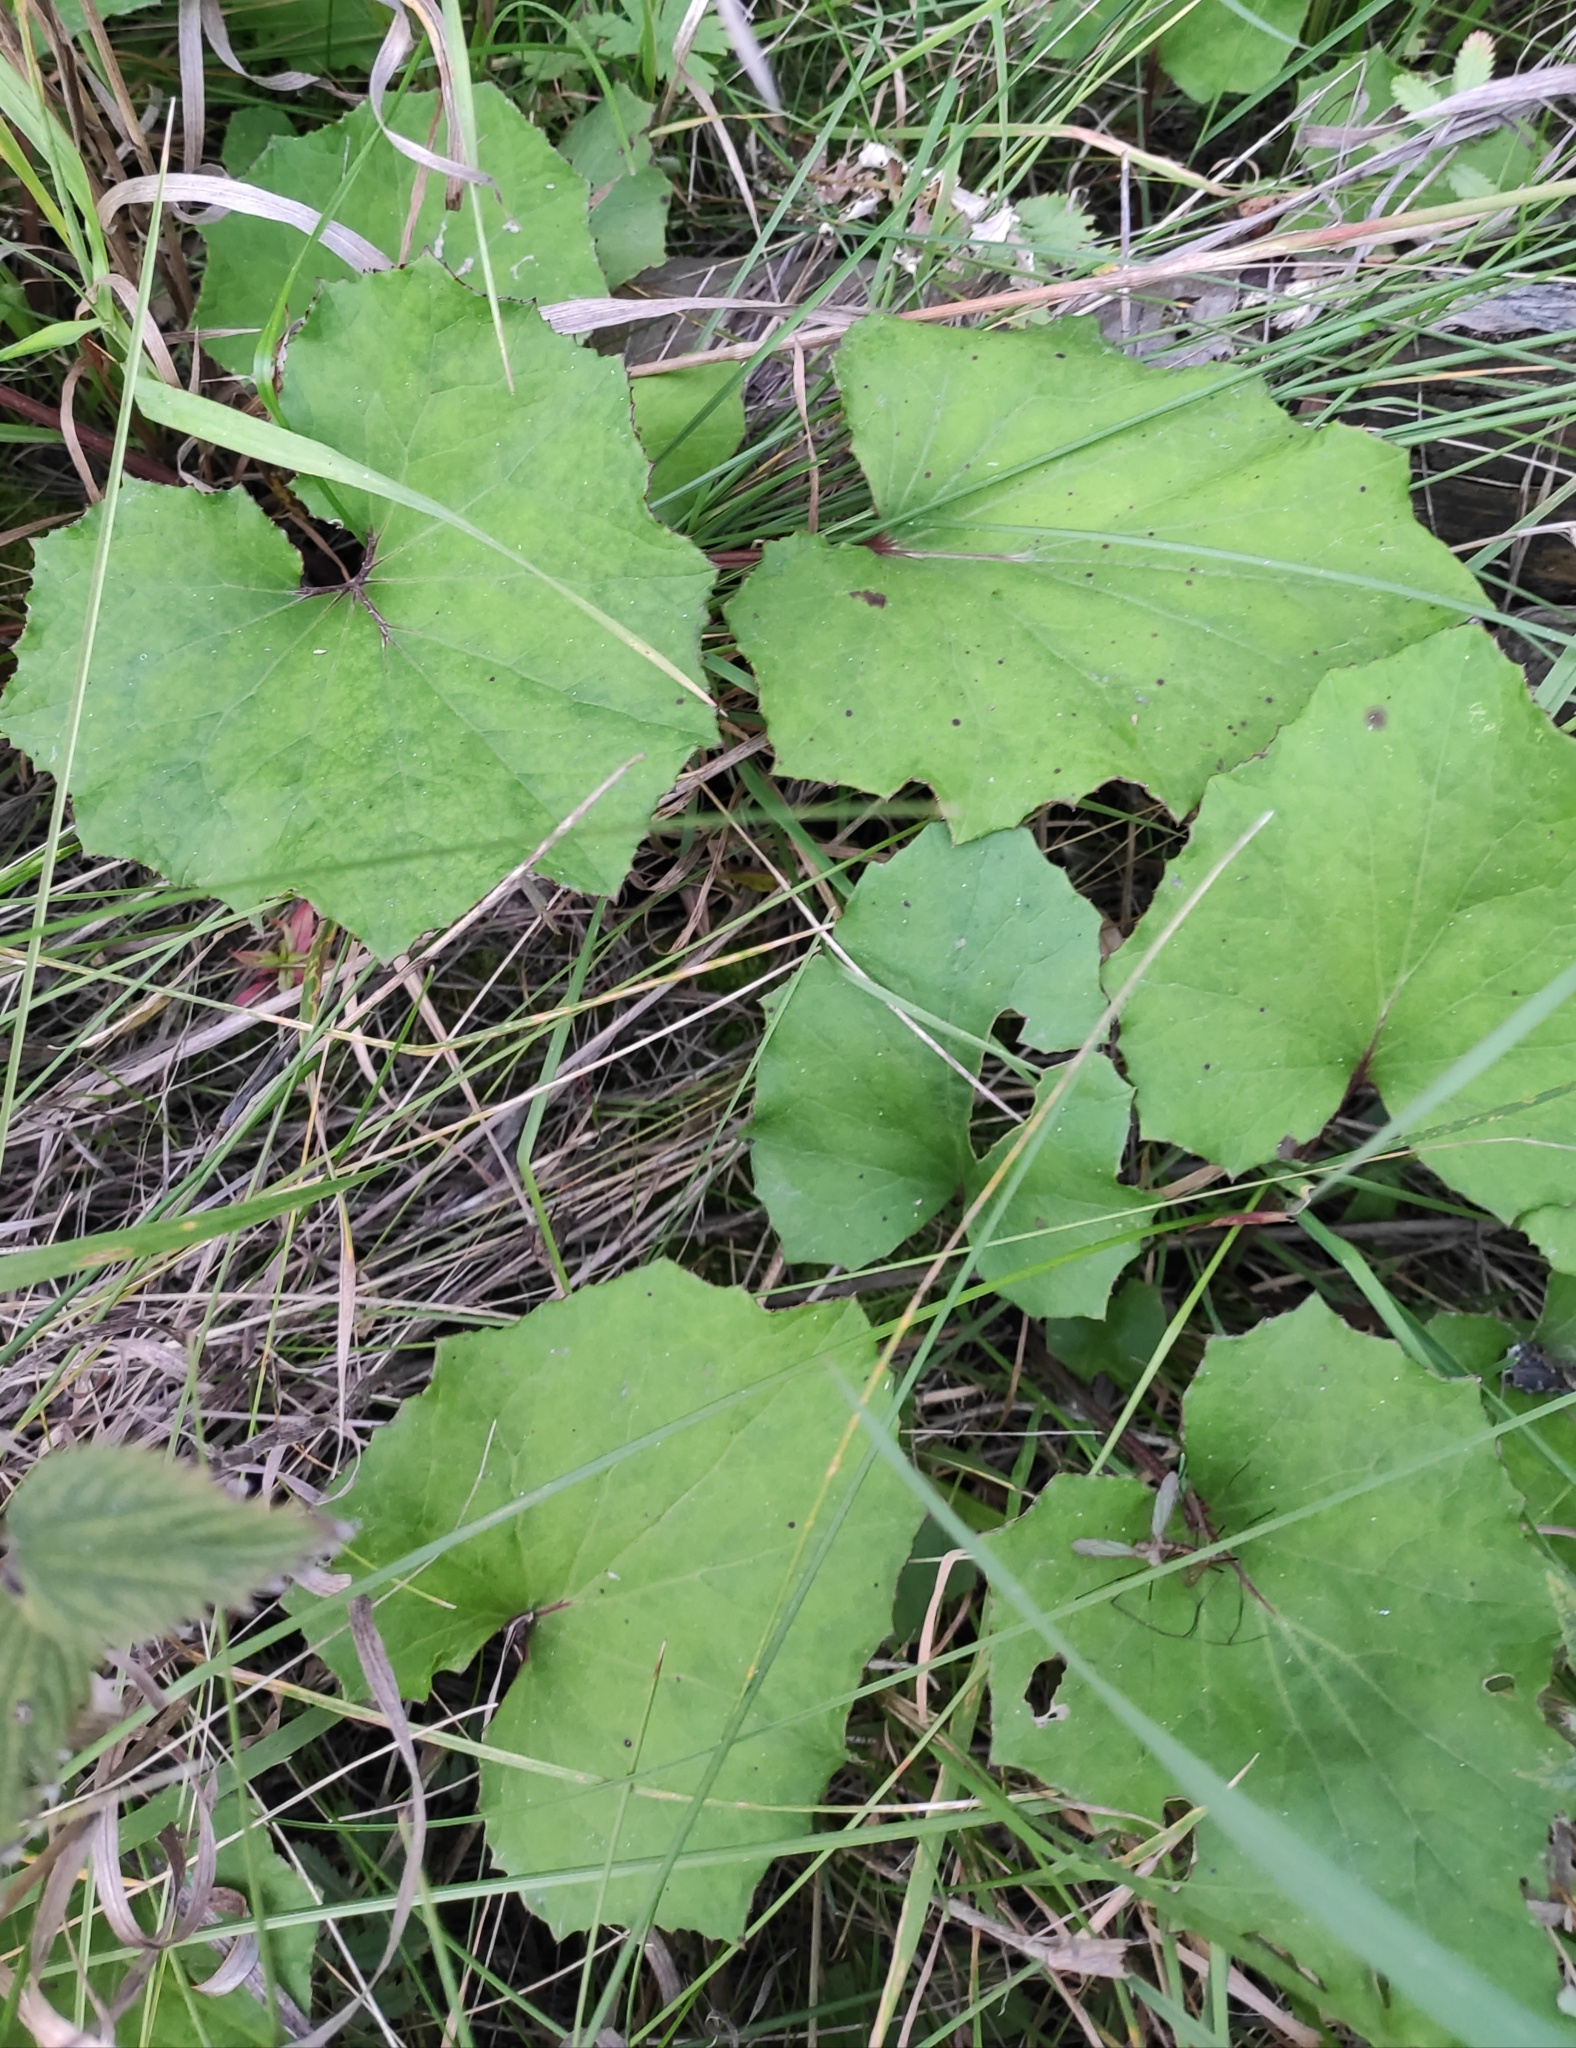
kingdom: Plantae
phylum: Tracheophyta
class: Magnoliopsida
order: Asterales
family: Asteraceae
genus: Tussilago
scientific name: Tussilago farfara
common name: Coltsfoot
